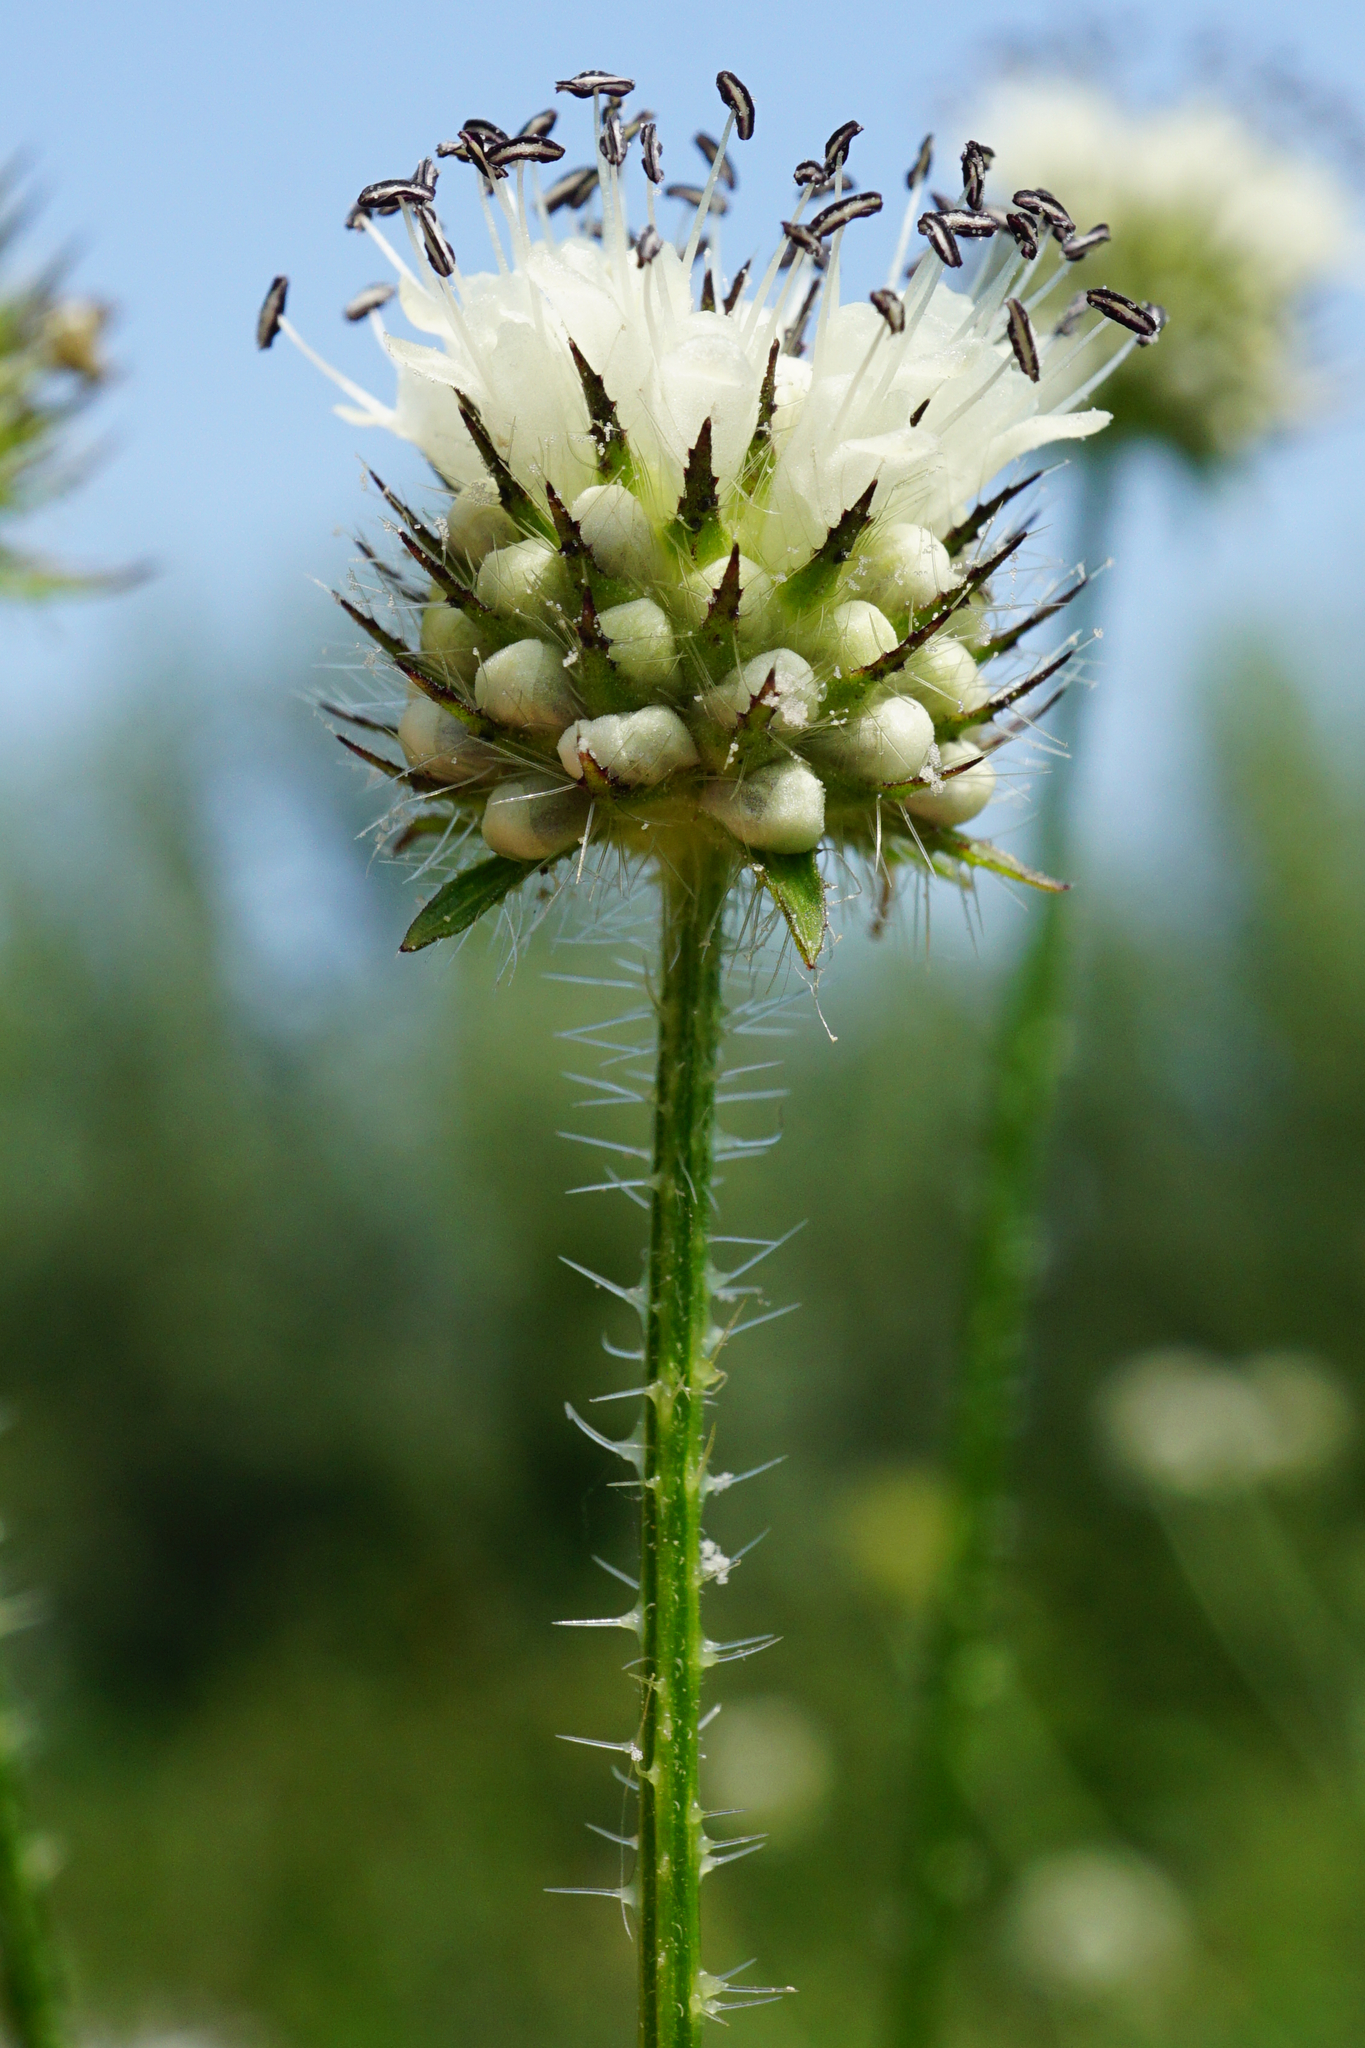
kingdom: Plantae
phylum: Tracheophyta
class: Magnoliopsida
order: Dipsacales
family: Caprifoliaceae
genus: Dipsacus
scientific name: Dipsacus pilosus
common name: Small teasel
